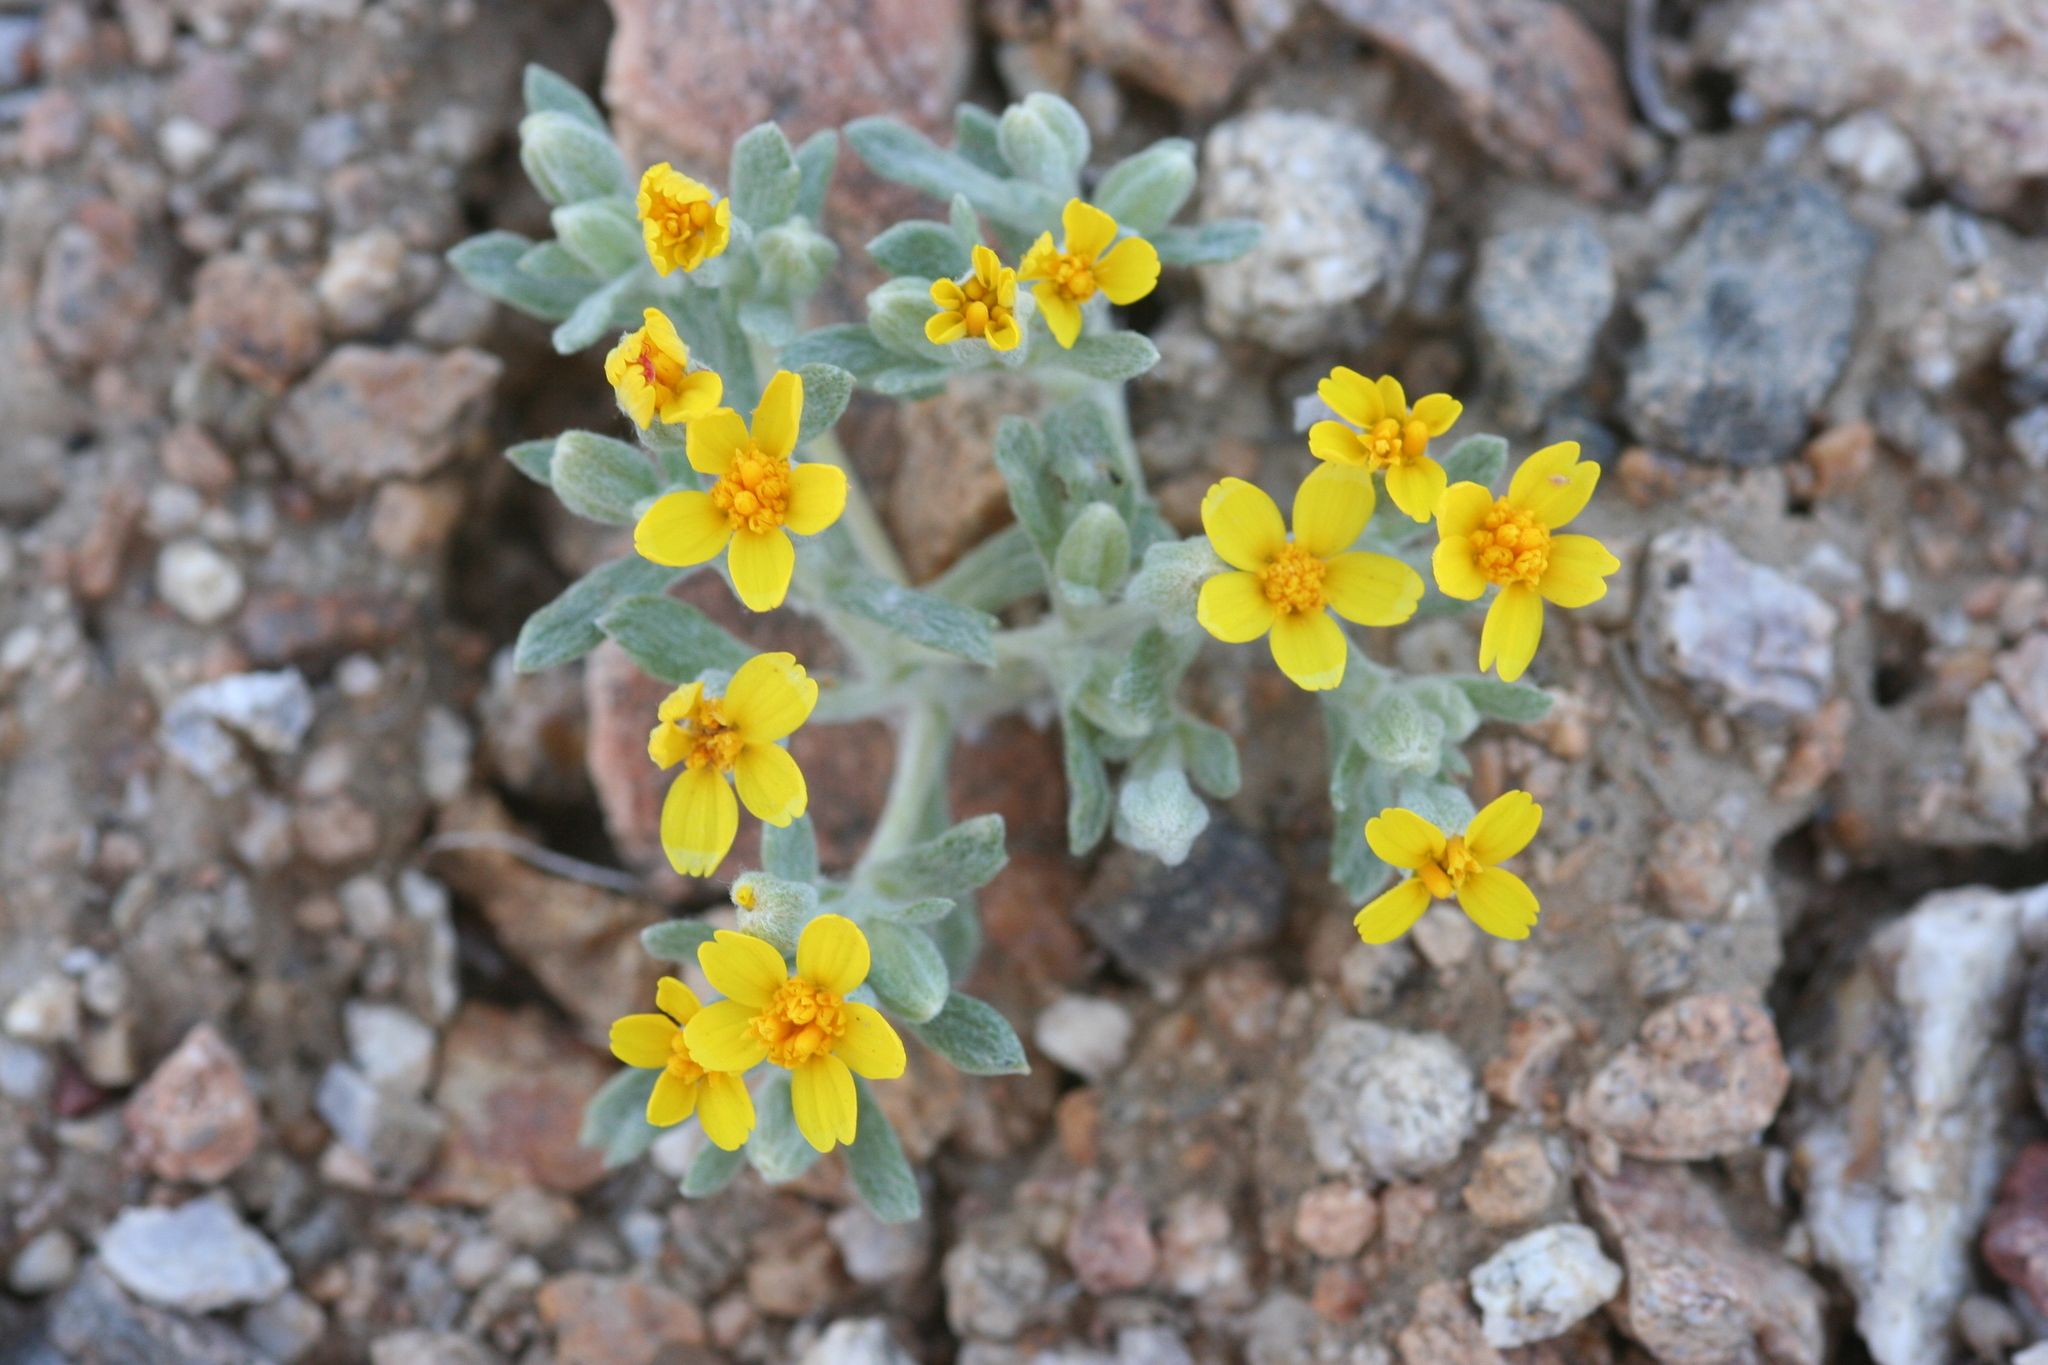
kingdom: Plantae
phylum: Tracheophyta
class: Magnoliopsida
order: Asterales
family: Asteraceae
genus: Syntrichopappus
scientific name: Syntrichopappus fremontii
